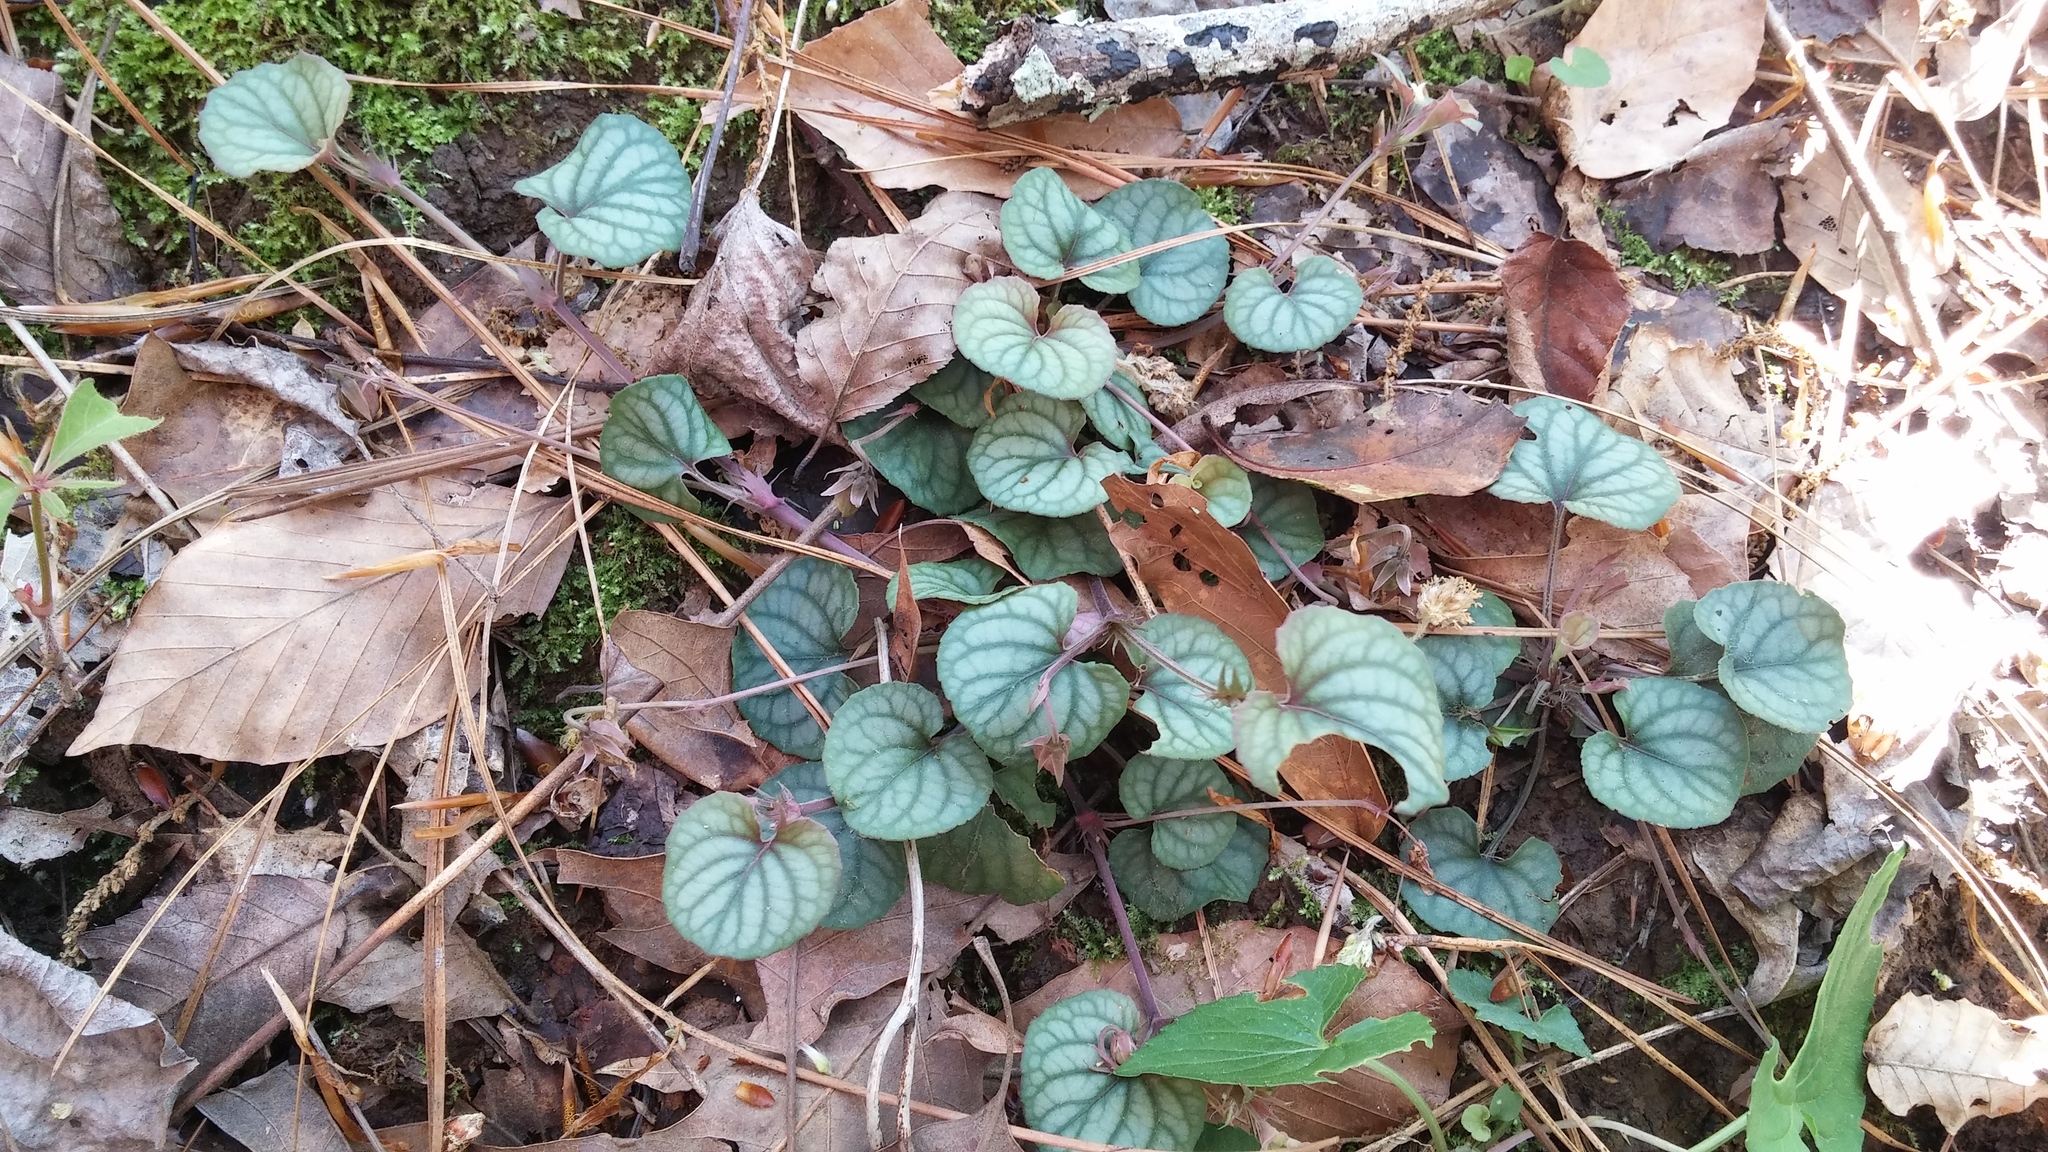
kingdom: Plantae
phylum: Tracheophyta
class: Magnoliopsida
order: Malpighiales
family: Violaceae
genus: Viola
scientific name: Viola walteri
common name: Prostrate southern violet
